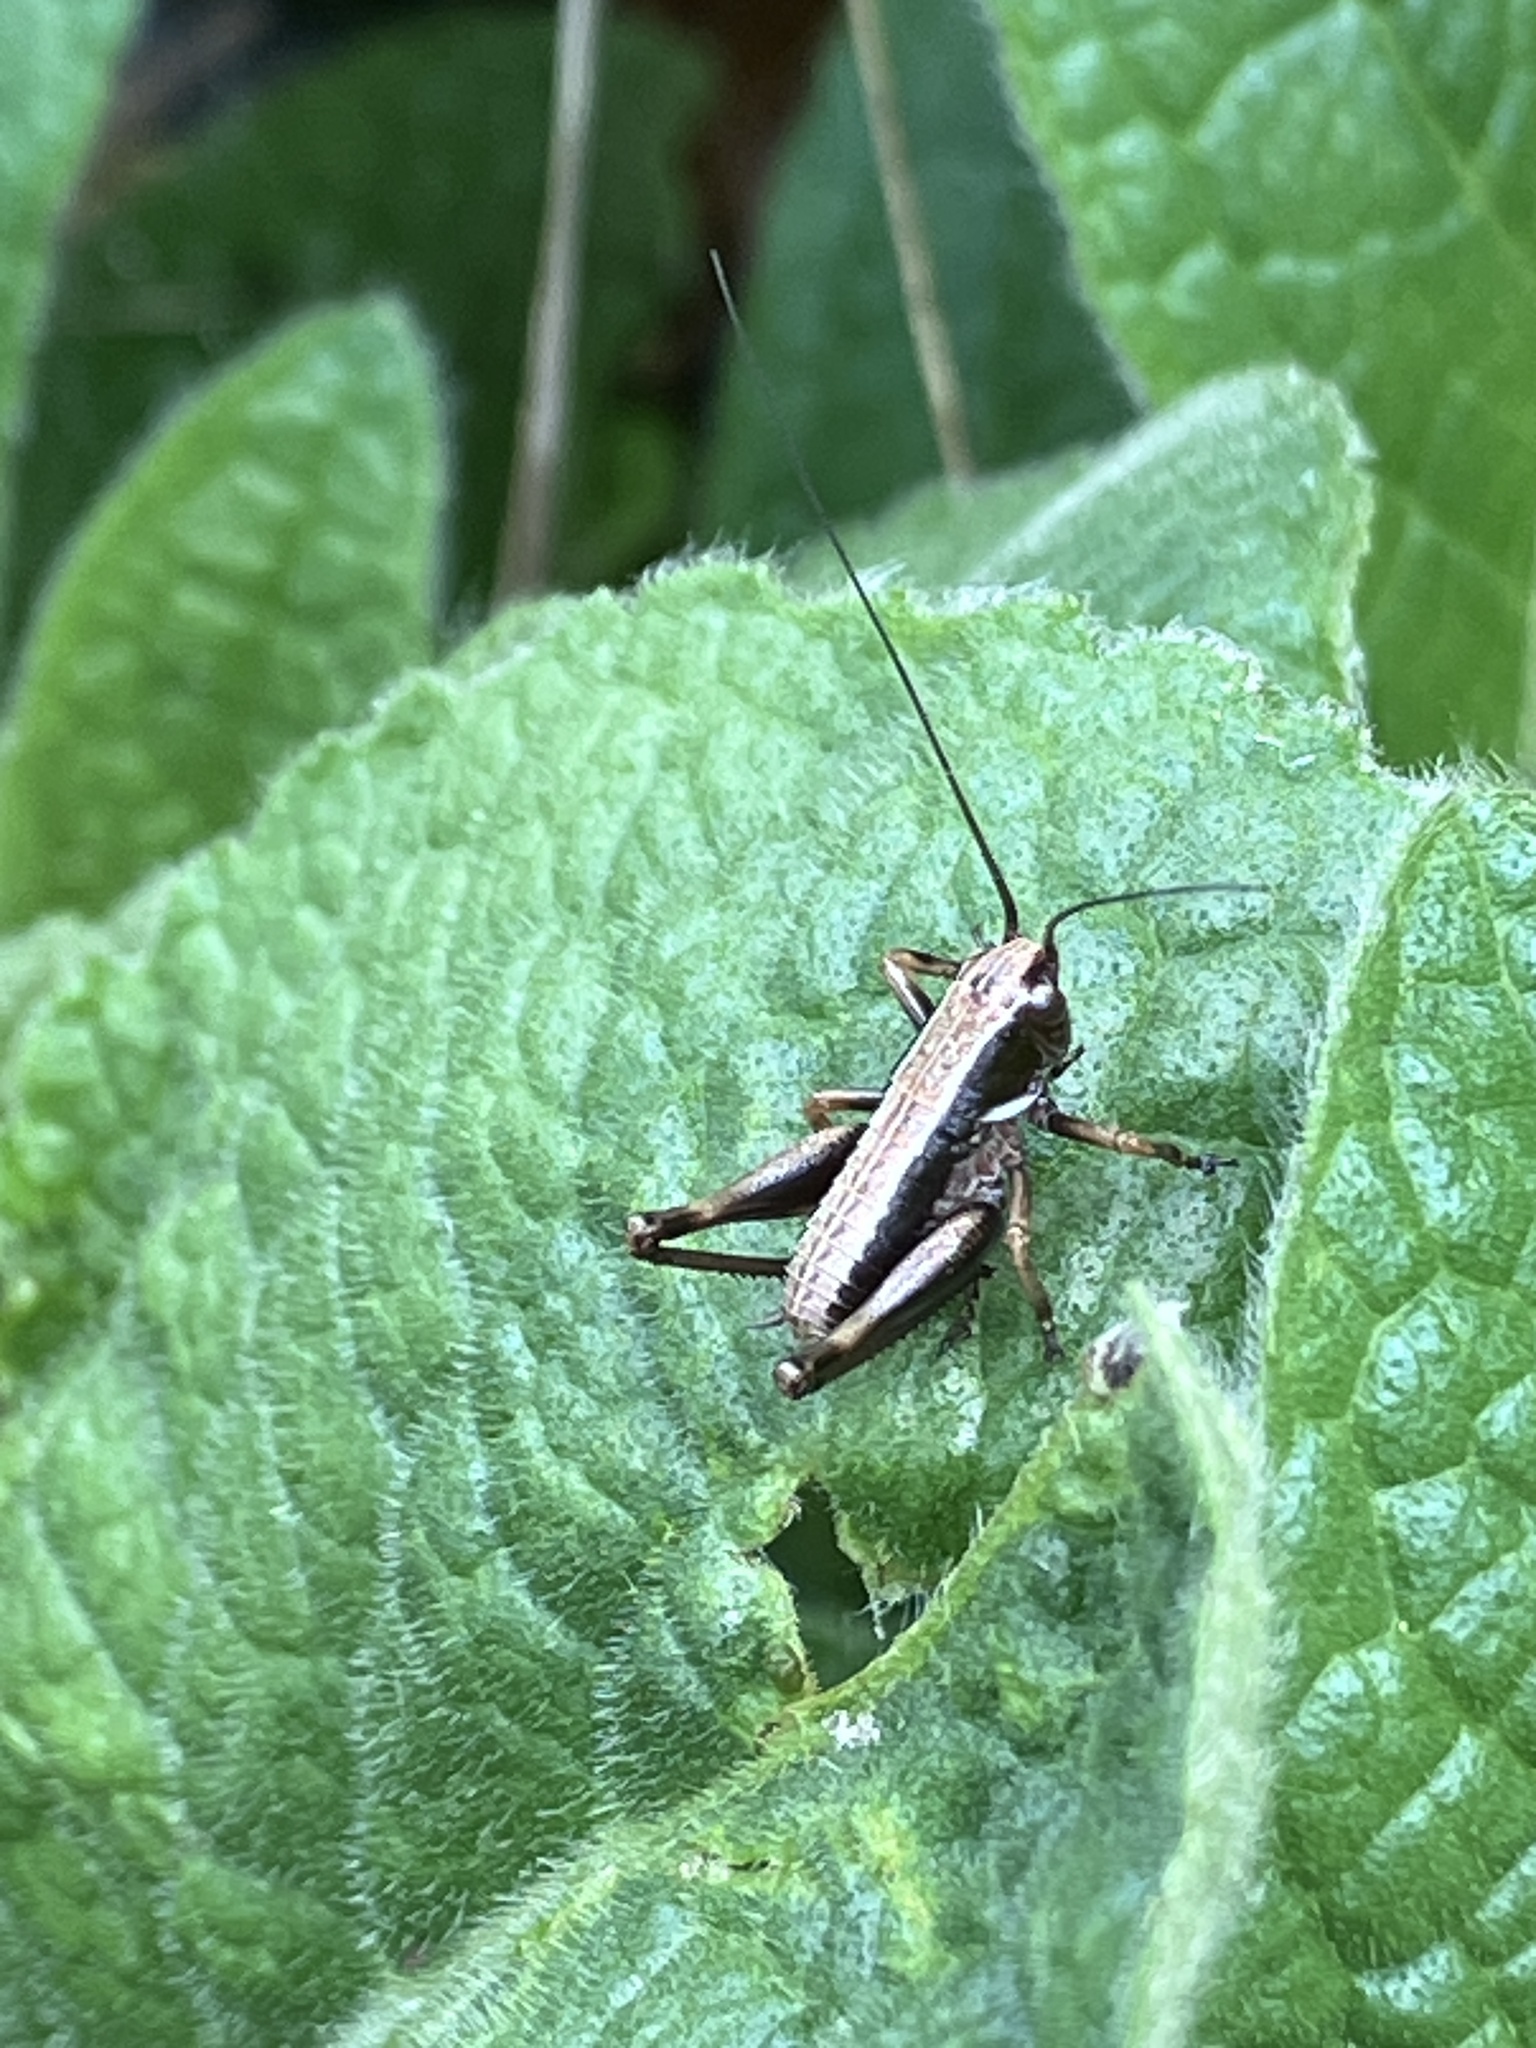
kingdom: Animalia
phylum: Arthropoda
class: Insecta
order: Orthoptera
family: Tettigoniidae
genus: Pholidoptera
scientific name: Pholidoptera aptera
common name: Alpine dark bush-cricket
